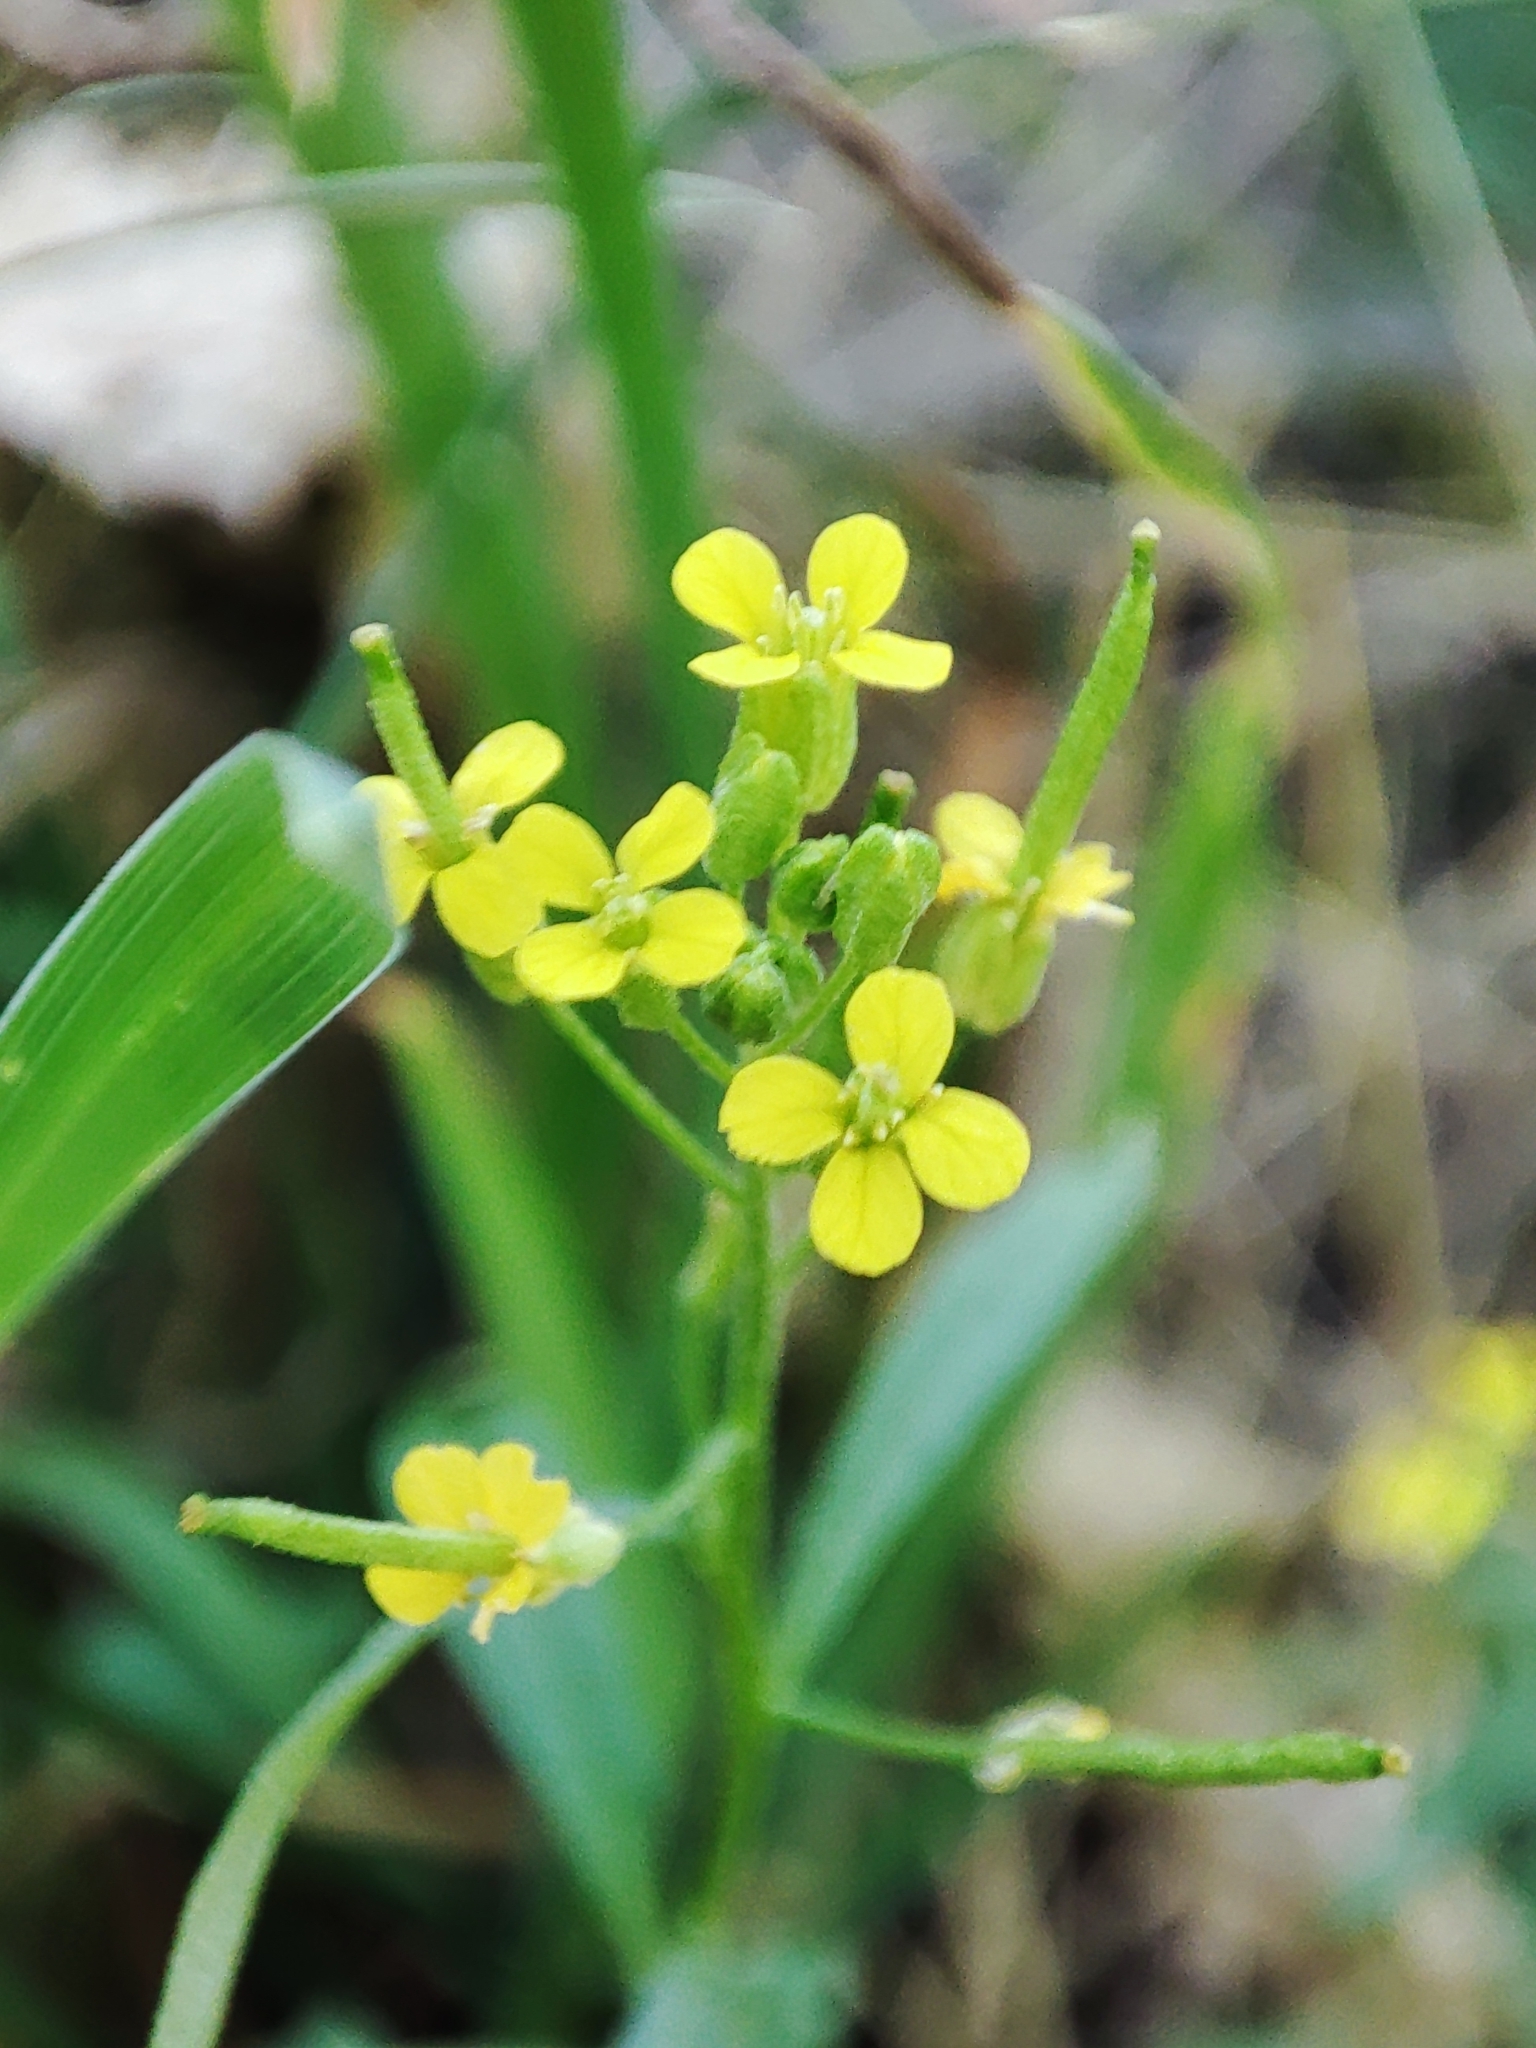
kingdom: Plantae
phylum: Tracheophyta
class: Magnoliopsida
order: Brassicales
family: Brassicaceae
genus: Erysimum
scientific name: Erysimum cheiranthoides
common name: Treacle mustard
